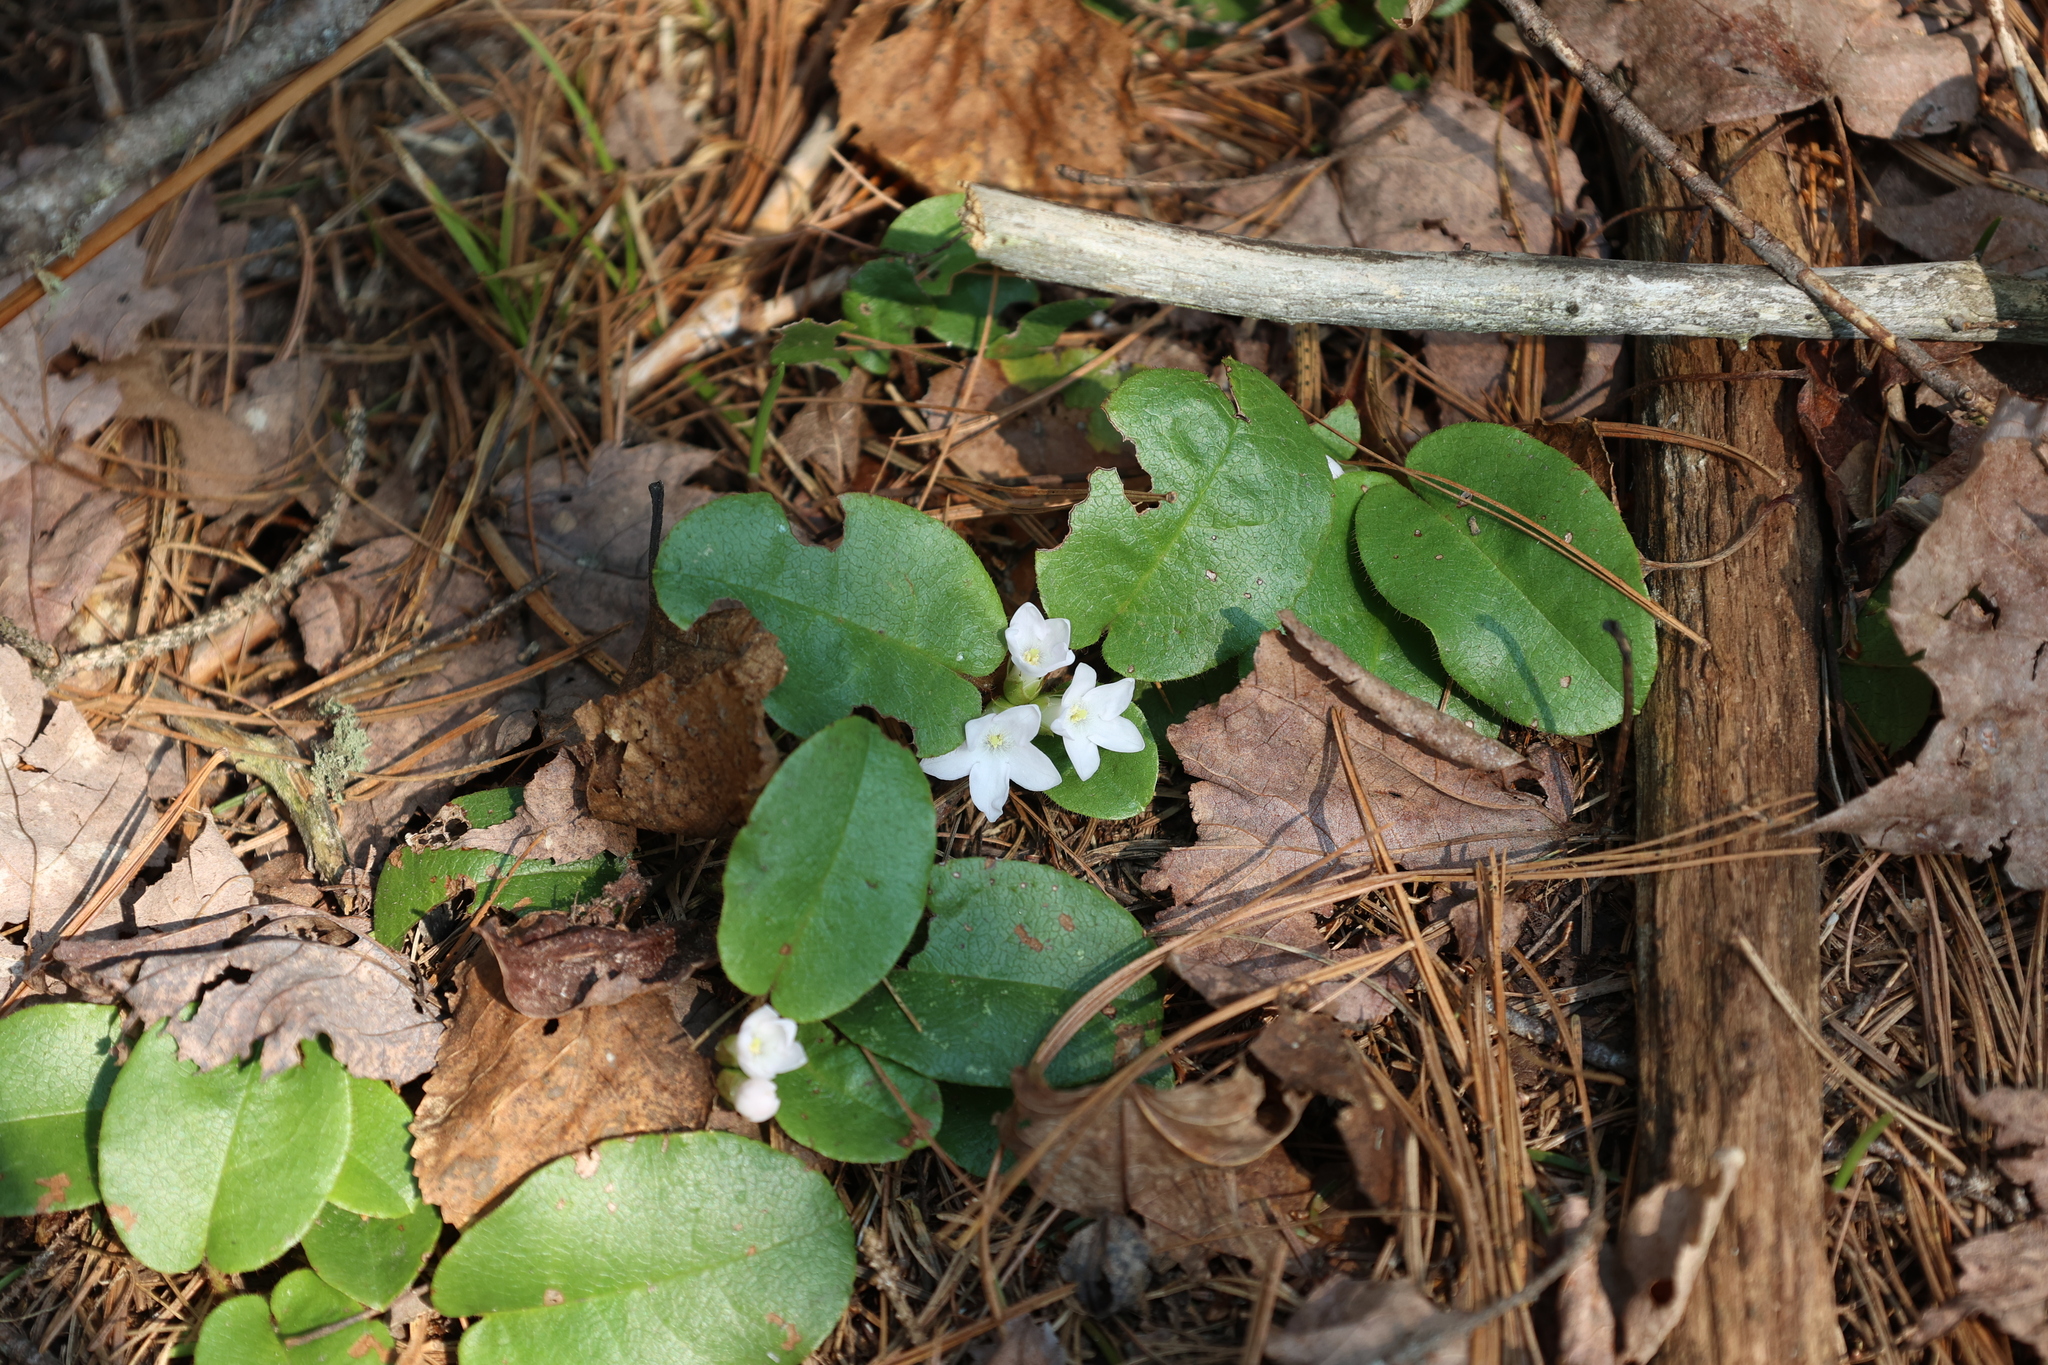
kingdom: Plantae
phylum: Tracheophyta
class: Magnoliopsida
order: Ericales
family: Ericaceae
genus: Epigaea
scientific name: Epigaea repens
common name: Gravelroot
